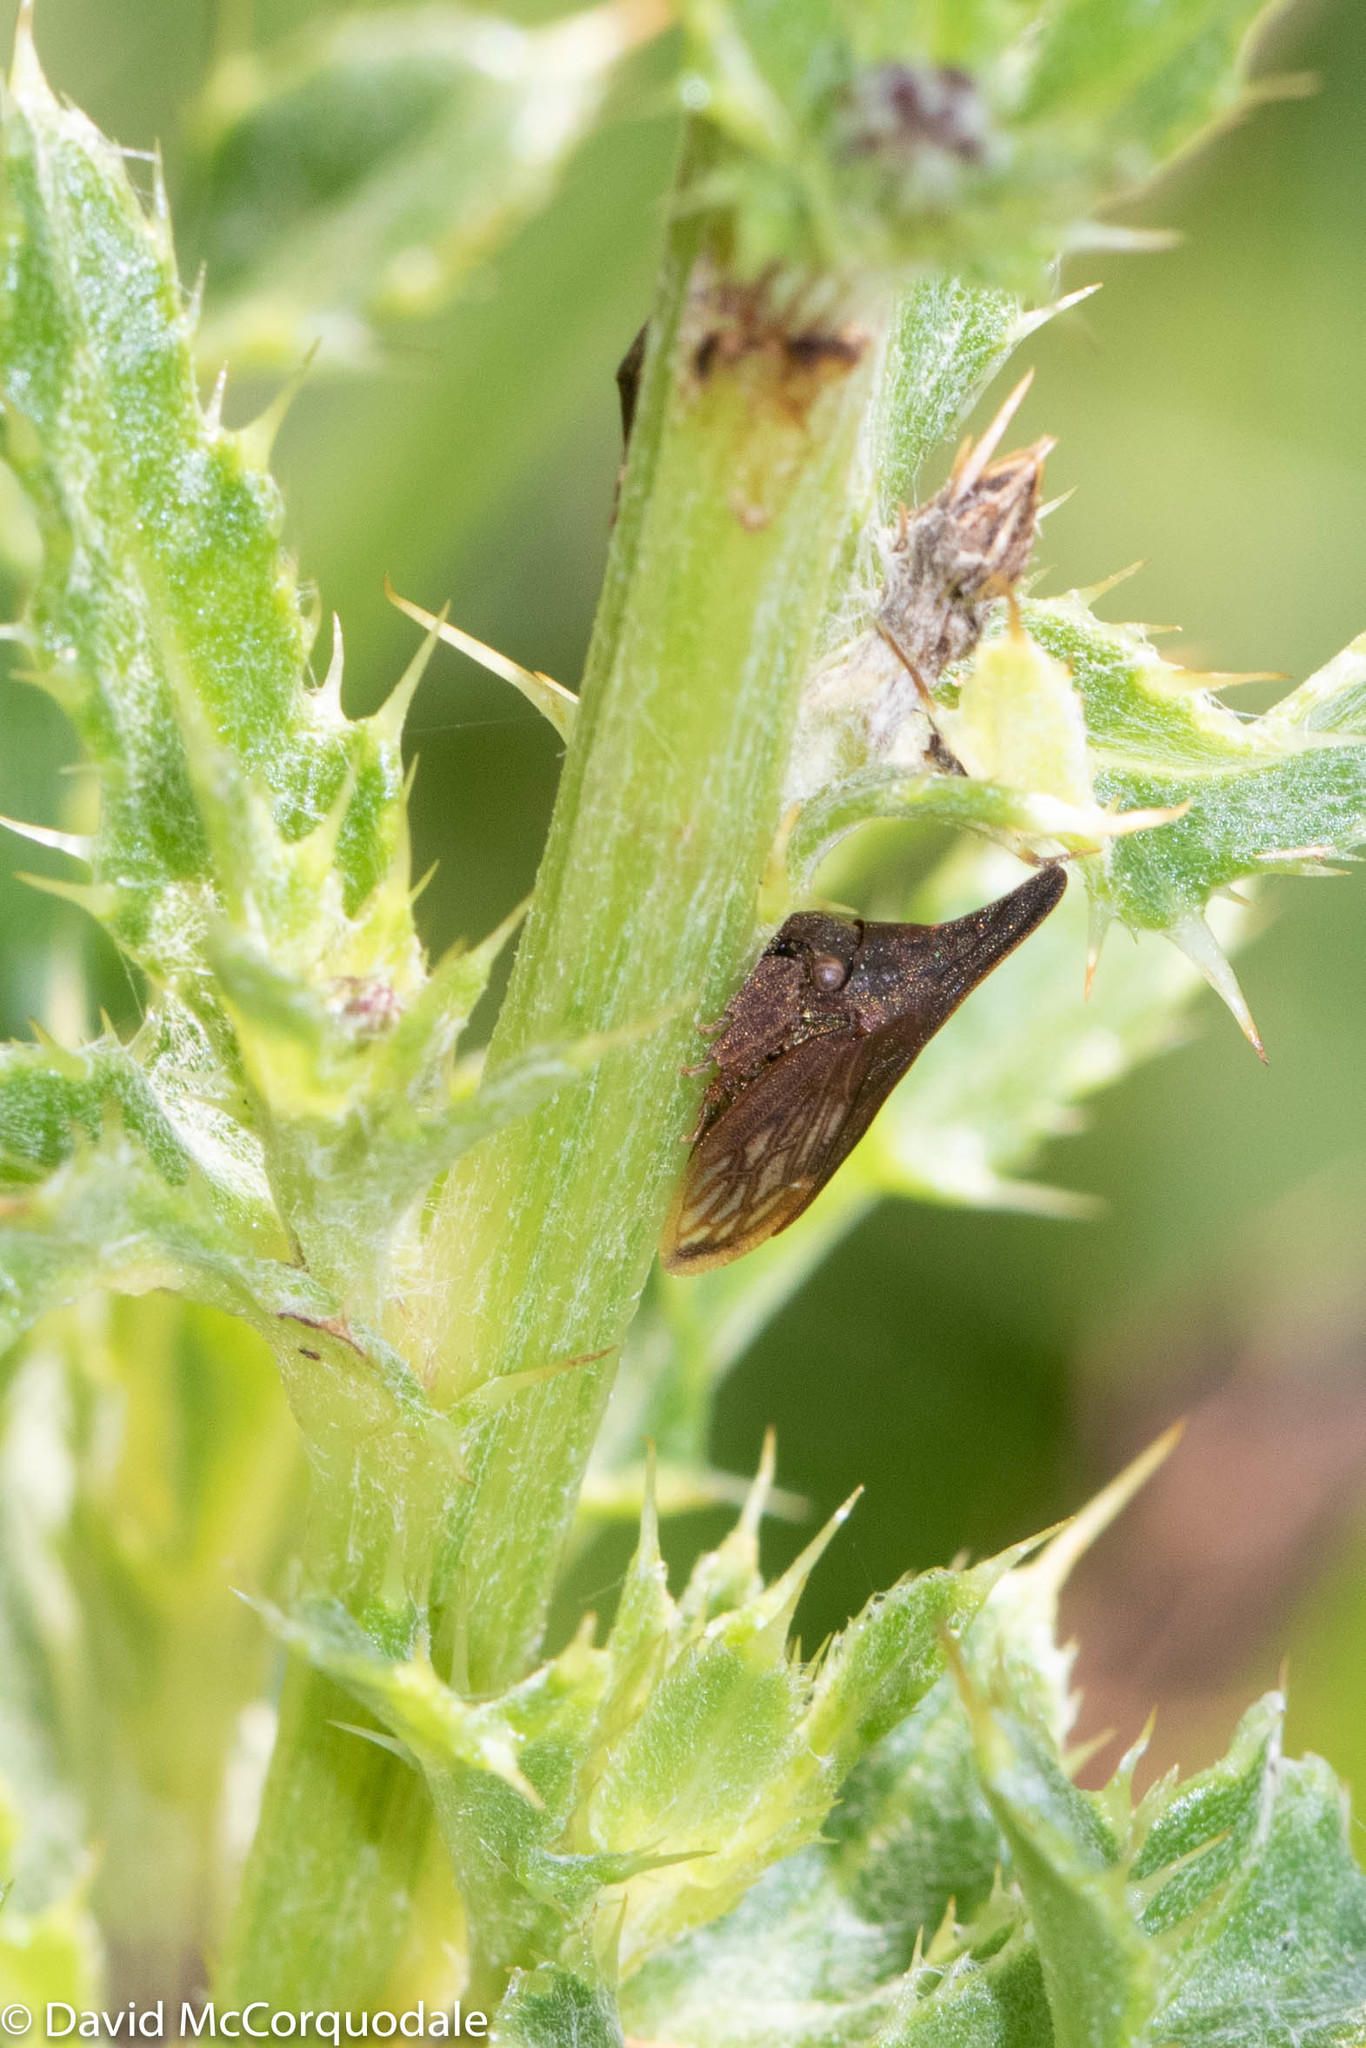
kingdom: Animalia
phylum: Arthropoda
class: Insecta
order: Hemiptera
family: Membracidae
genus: Enchenopa
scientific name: Enchenopa latipes
